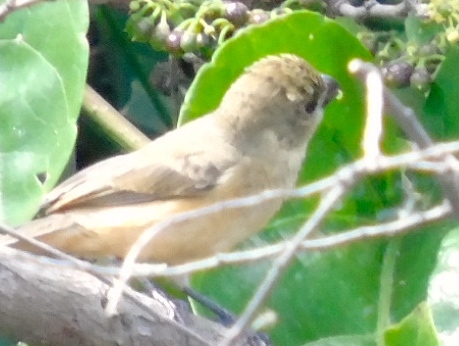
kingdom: Animalia
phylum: Chordata
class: Aves
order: Passeriformes
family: Thraupidae
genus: Sporophila
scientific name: Sporophila torqueola
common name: White-collared seedeater
